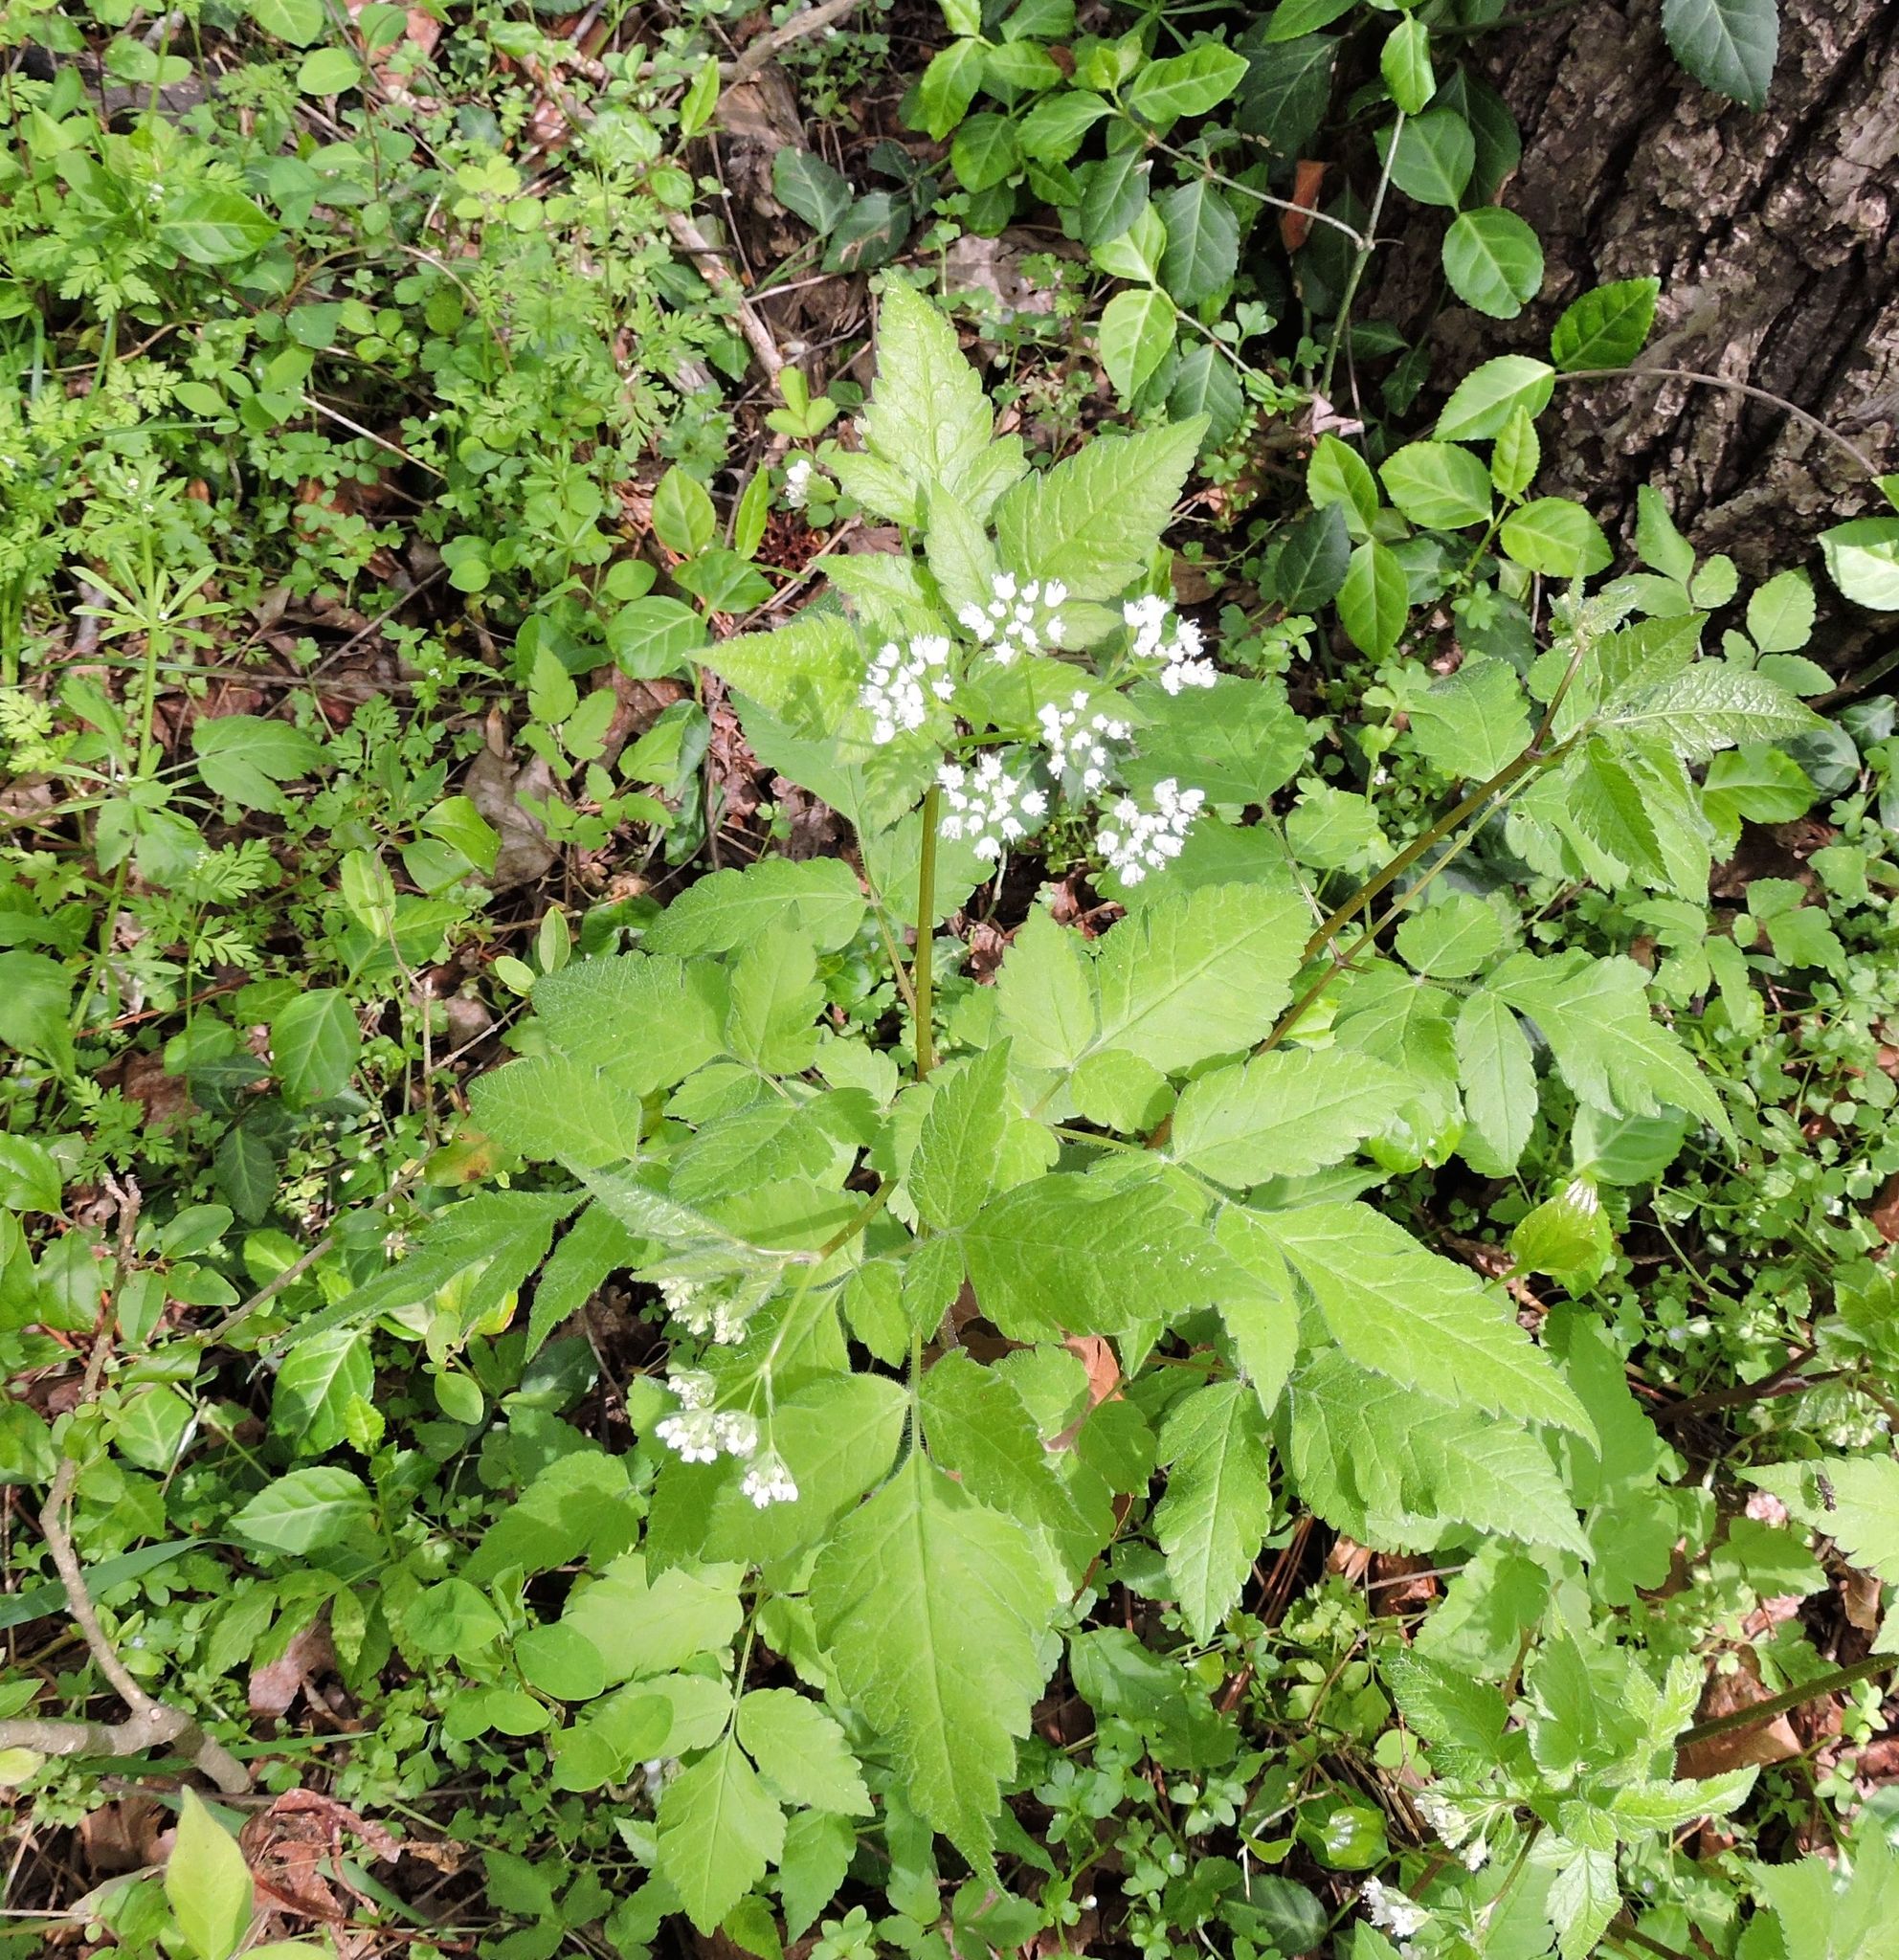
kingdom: Plantae
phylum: Tracheophyta
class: Magnoliopsida
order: Apiales
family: Apiaceae
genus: Osmorhiza
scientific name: Osmorhiza longistylis
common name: Smooth sweet cicely
